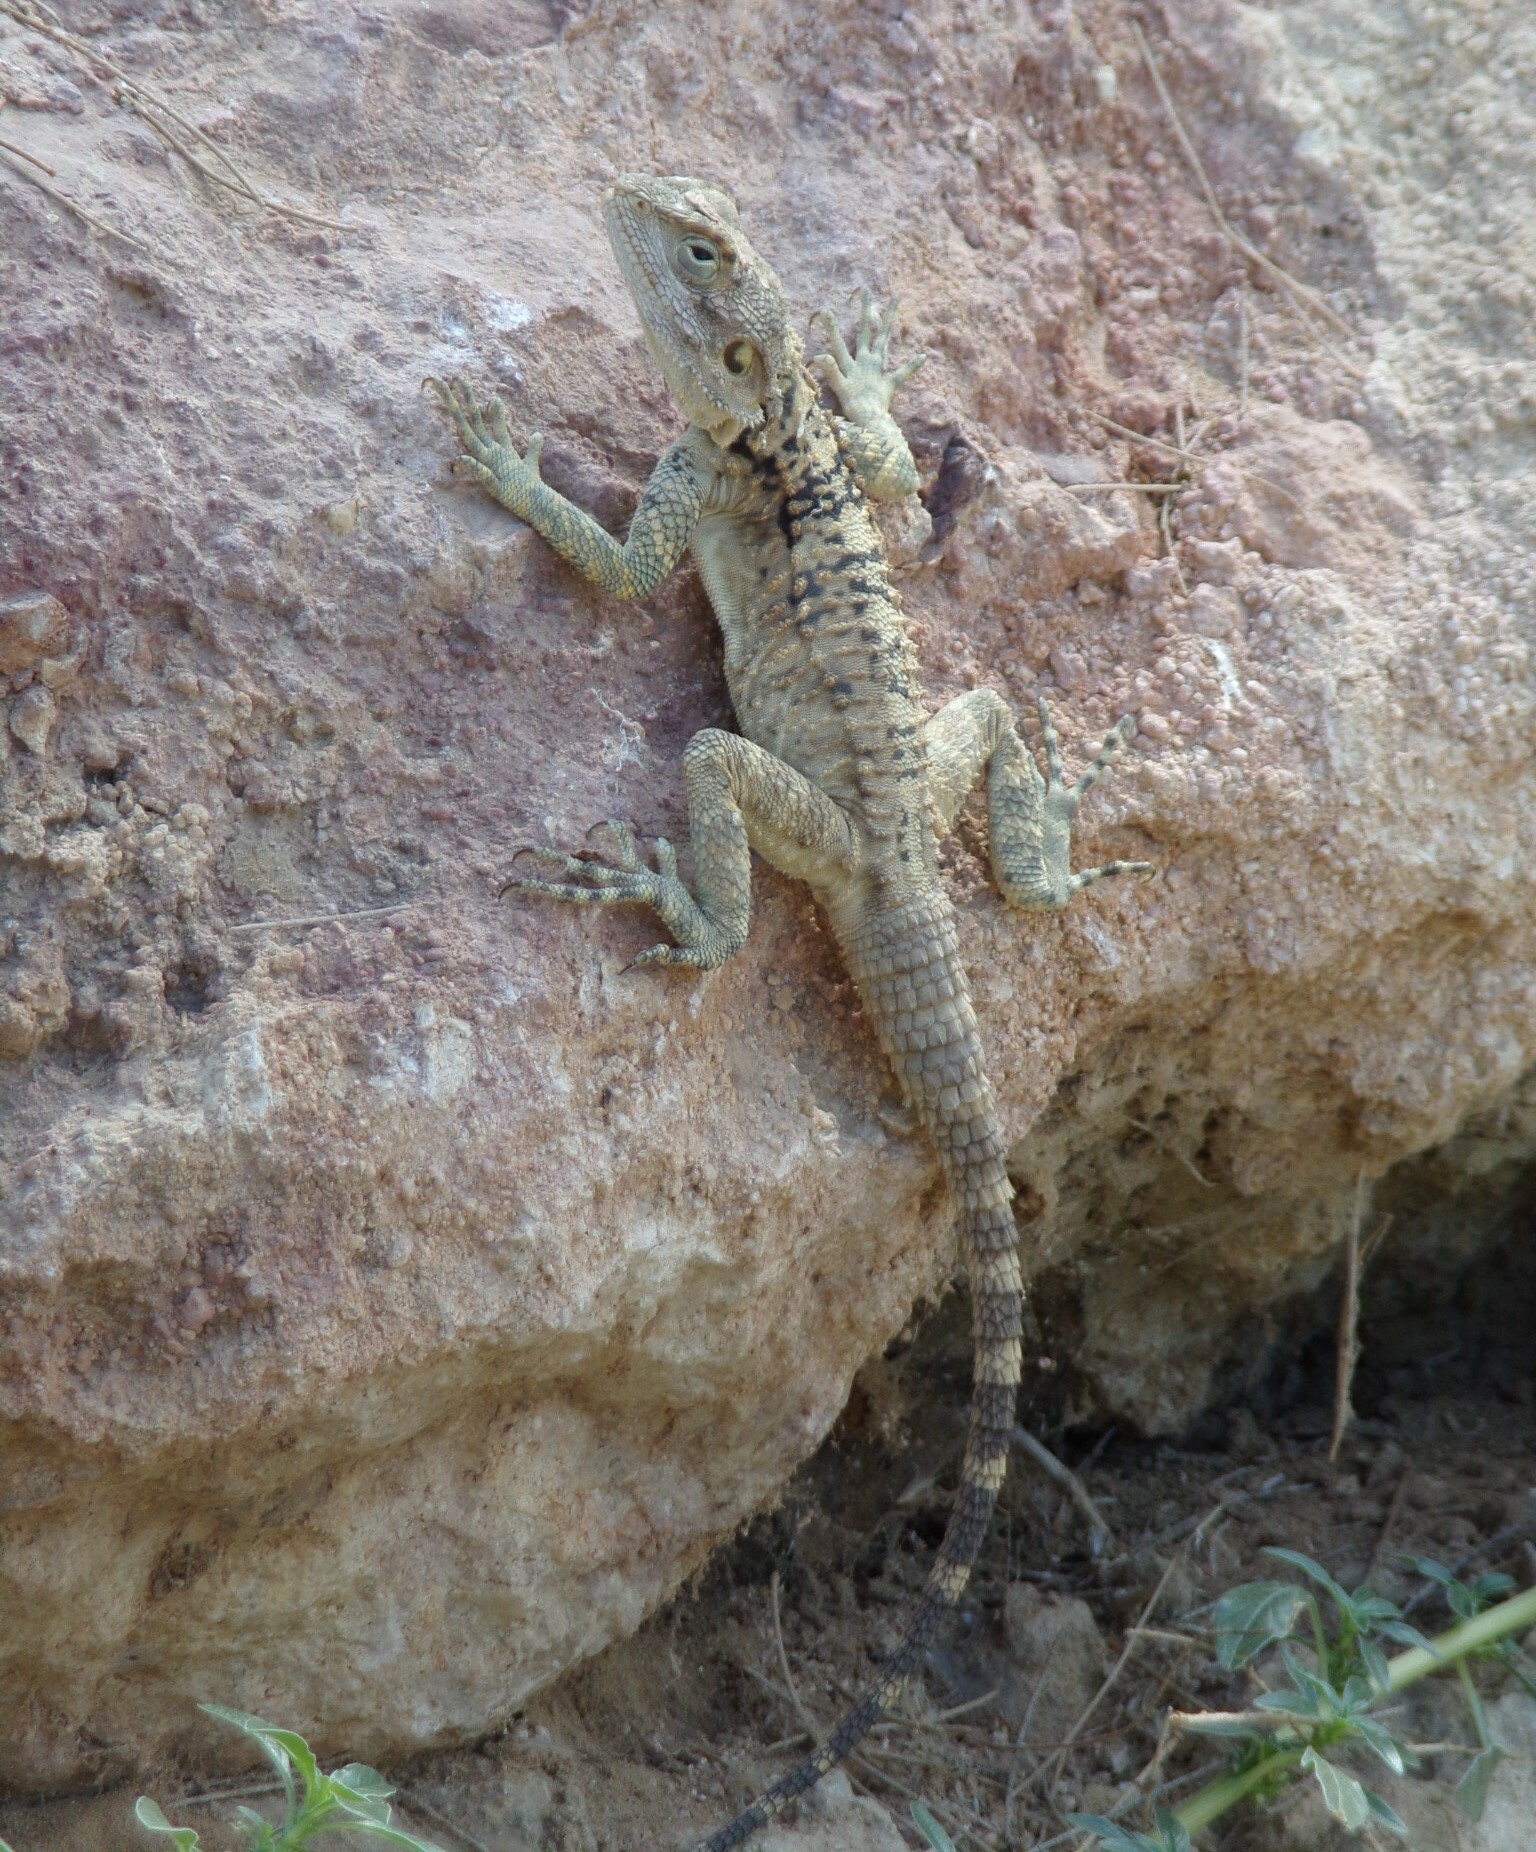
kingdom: Animalia
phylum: Chordata
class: Squamata
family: Agamidae
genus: Laudakia
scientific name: Laudakia
